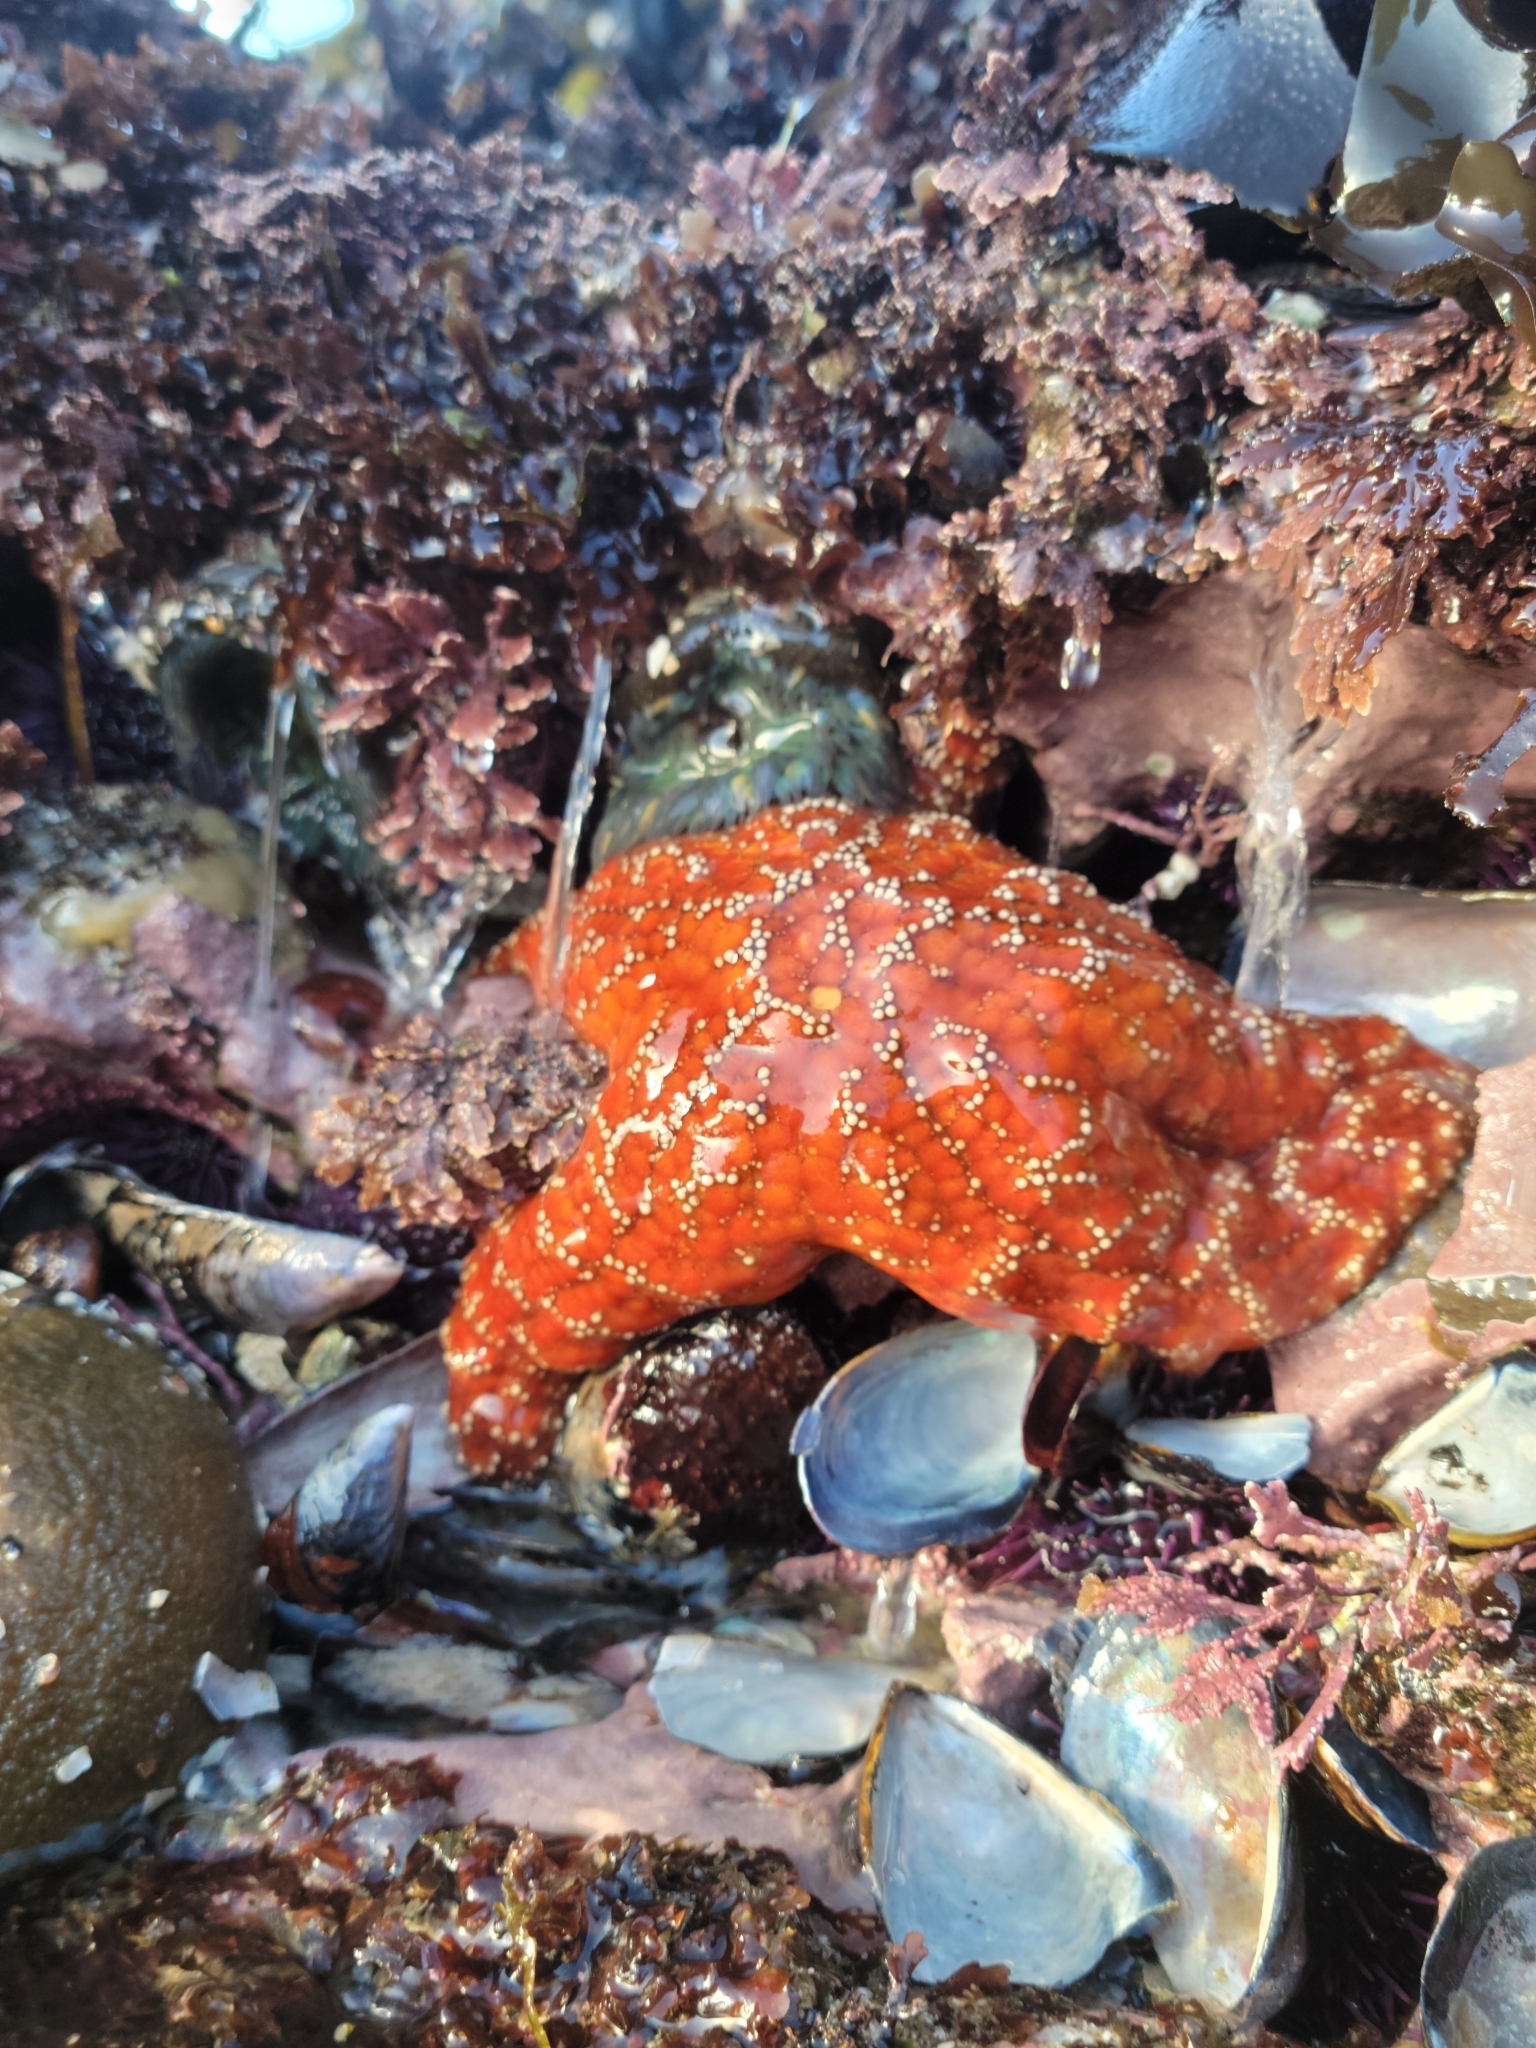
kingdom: Animalia
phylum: Echinodermata
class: Asteroidea
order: Forcipulatida
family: Asteriidae
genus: Pisaster
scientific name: Pisaster ochraceus
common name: Ochre stars
